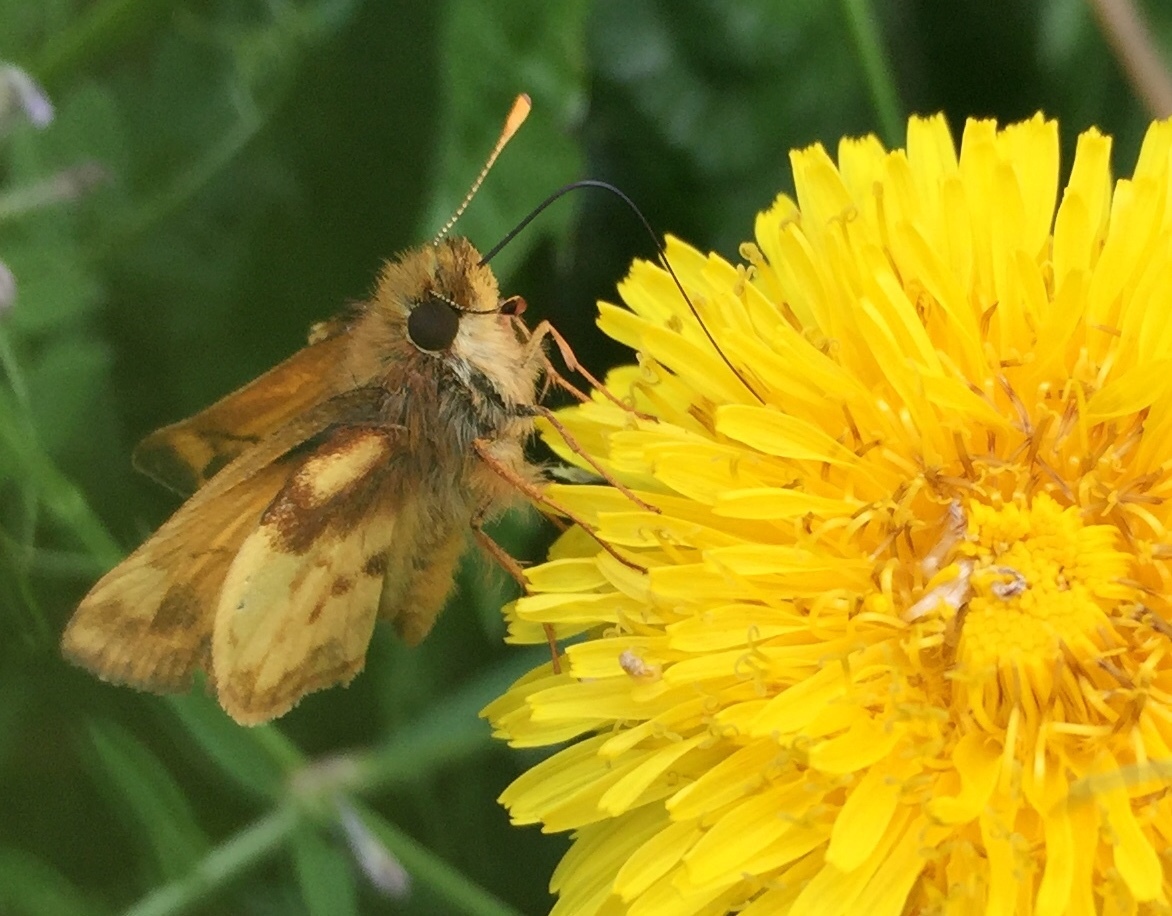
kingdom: Animalia
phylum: Arthropoda
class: Insecta
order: Lepidoptera
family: Hesperiidae
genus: Lon
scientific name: Lon zabulon
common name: Zabulon skipper
